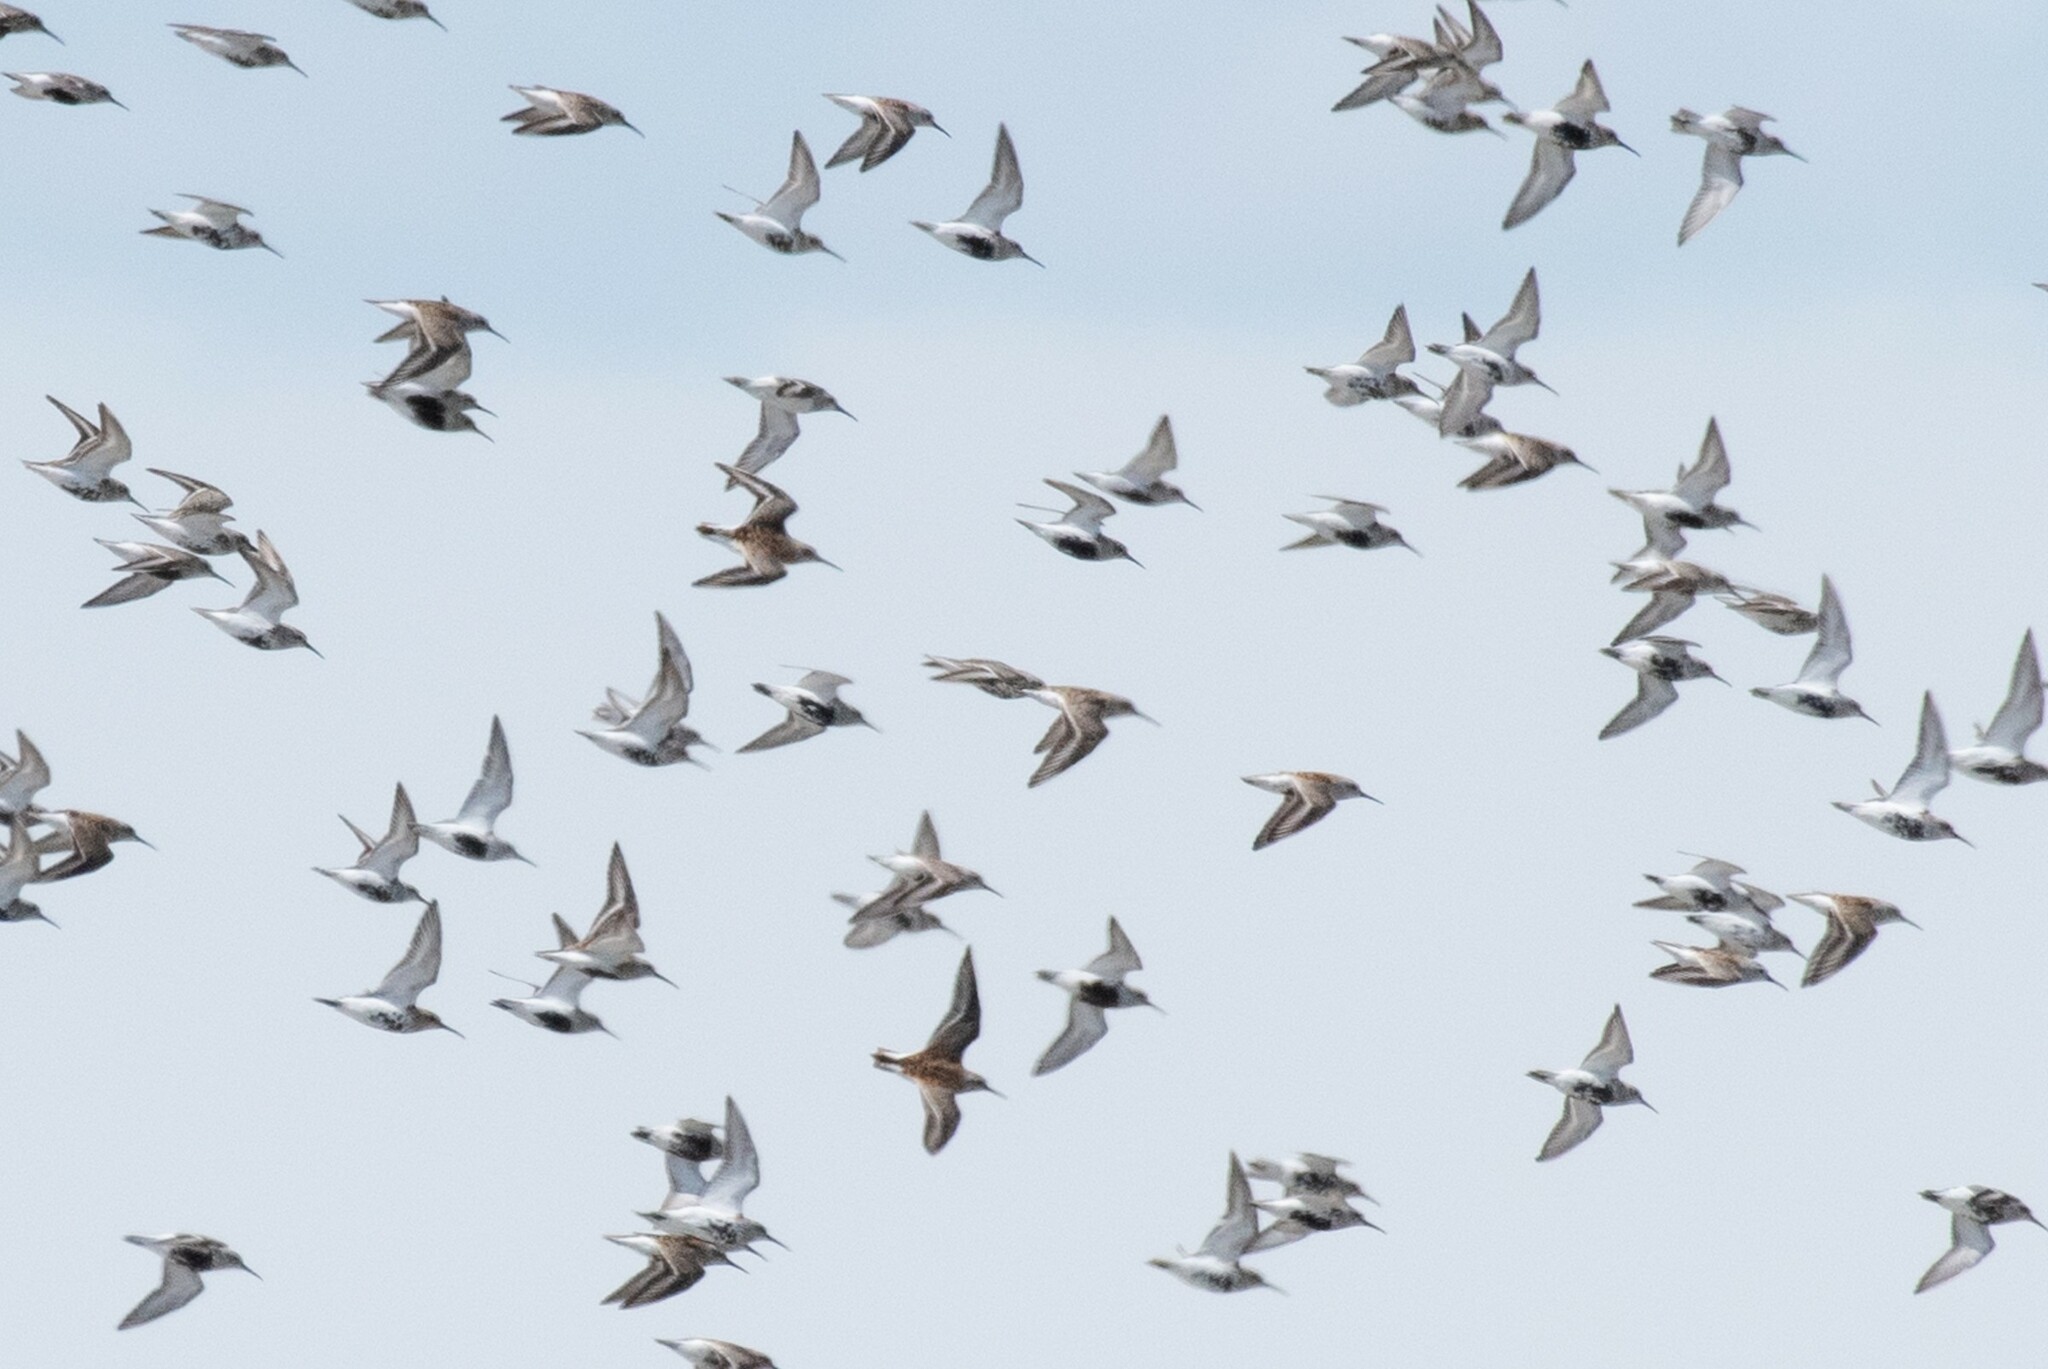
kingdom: Animalia
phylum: Chordata
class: Aves
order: Charadriiformes
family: Scolopacidae
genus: Calidris
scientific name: Calidris alpina
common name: Dunlin
